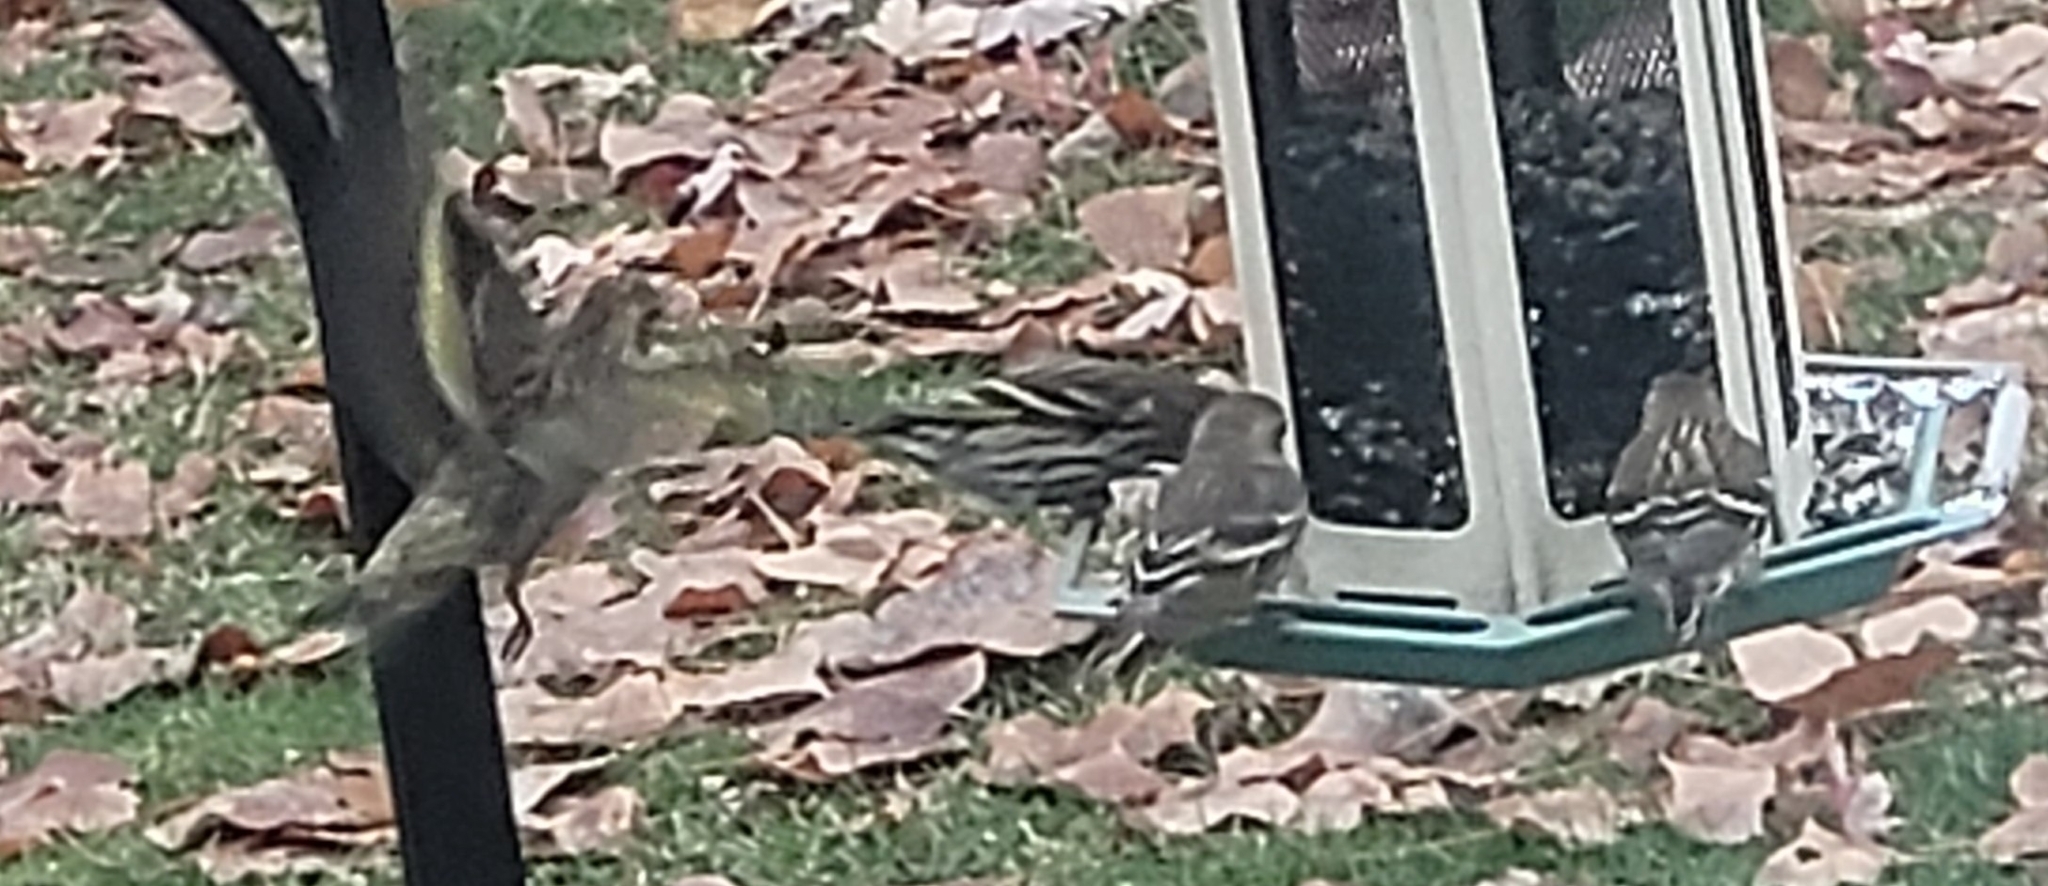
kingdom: Animalia
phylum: Chordata
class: Aves
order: Passeriformes
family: Fringillidae
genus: Spinus
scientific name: Spinus pinus
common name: Pine siskin
